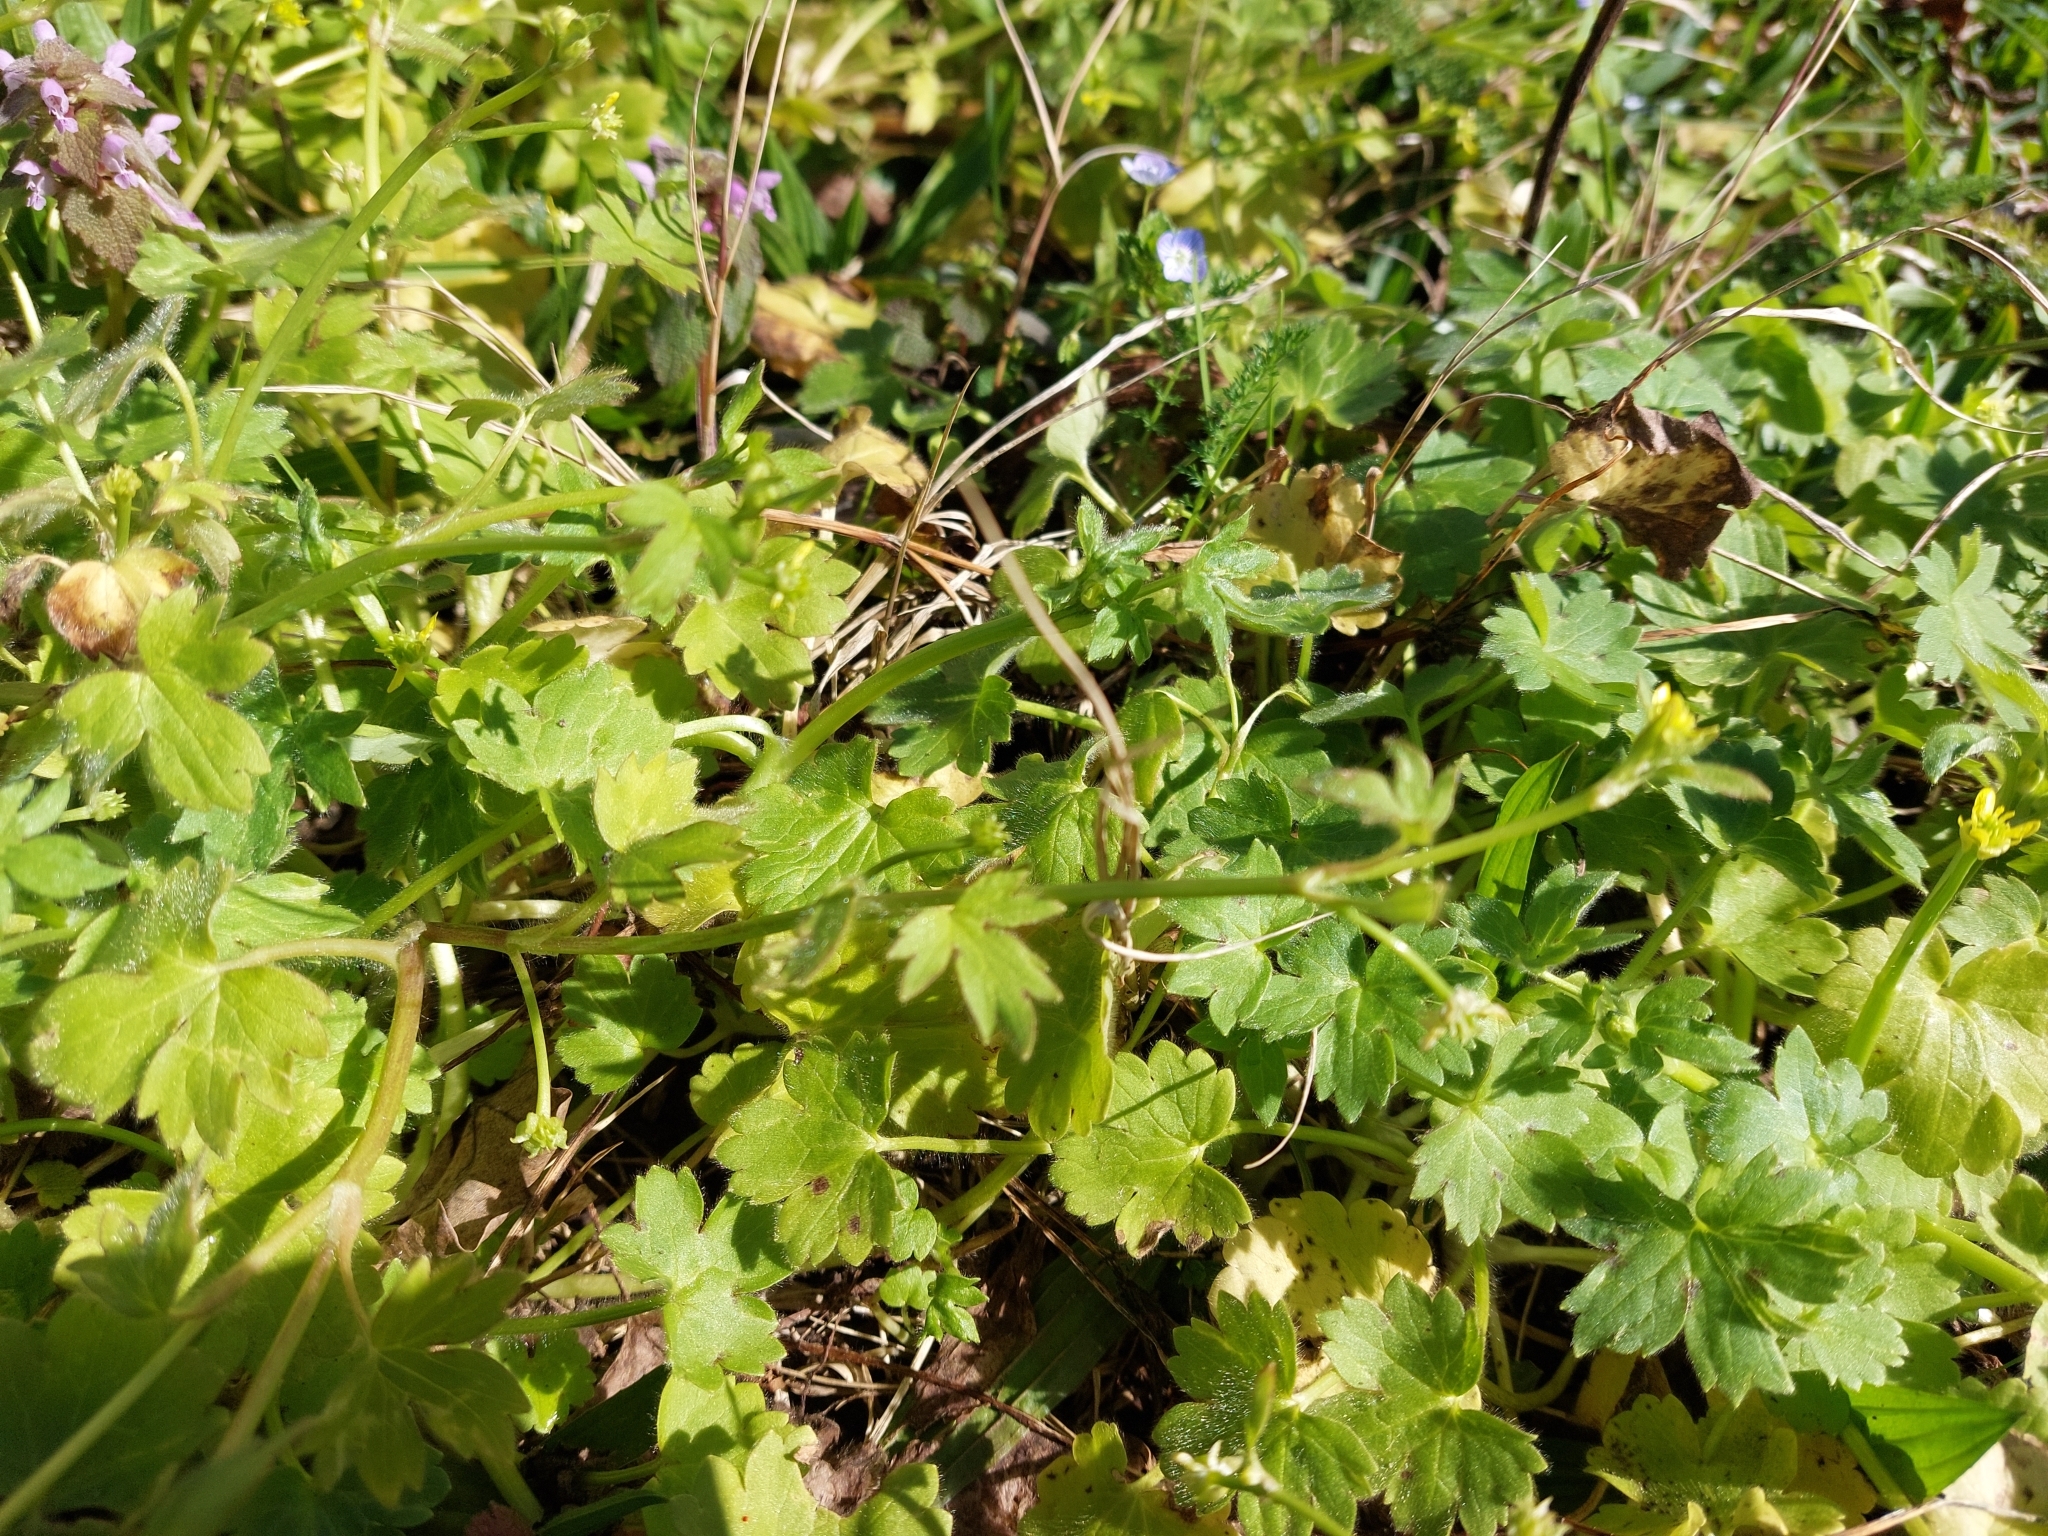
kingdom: Plantae
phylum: Tracheophyta
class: Magnoliopsida
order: Ranunculales
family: Ranunculaceae
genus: Ranunculus
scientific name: Ranunculus parviflorus
